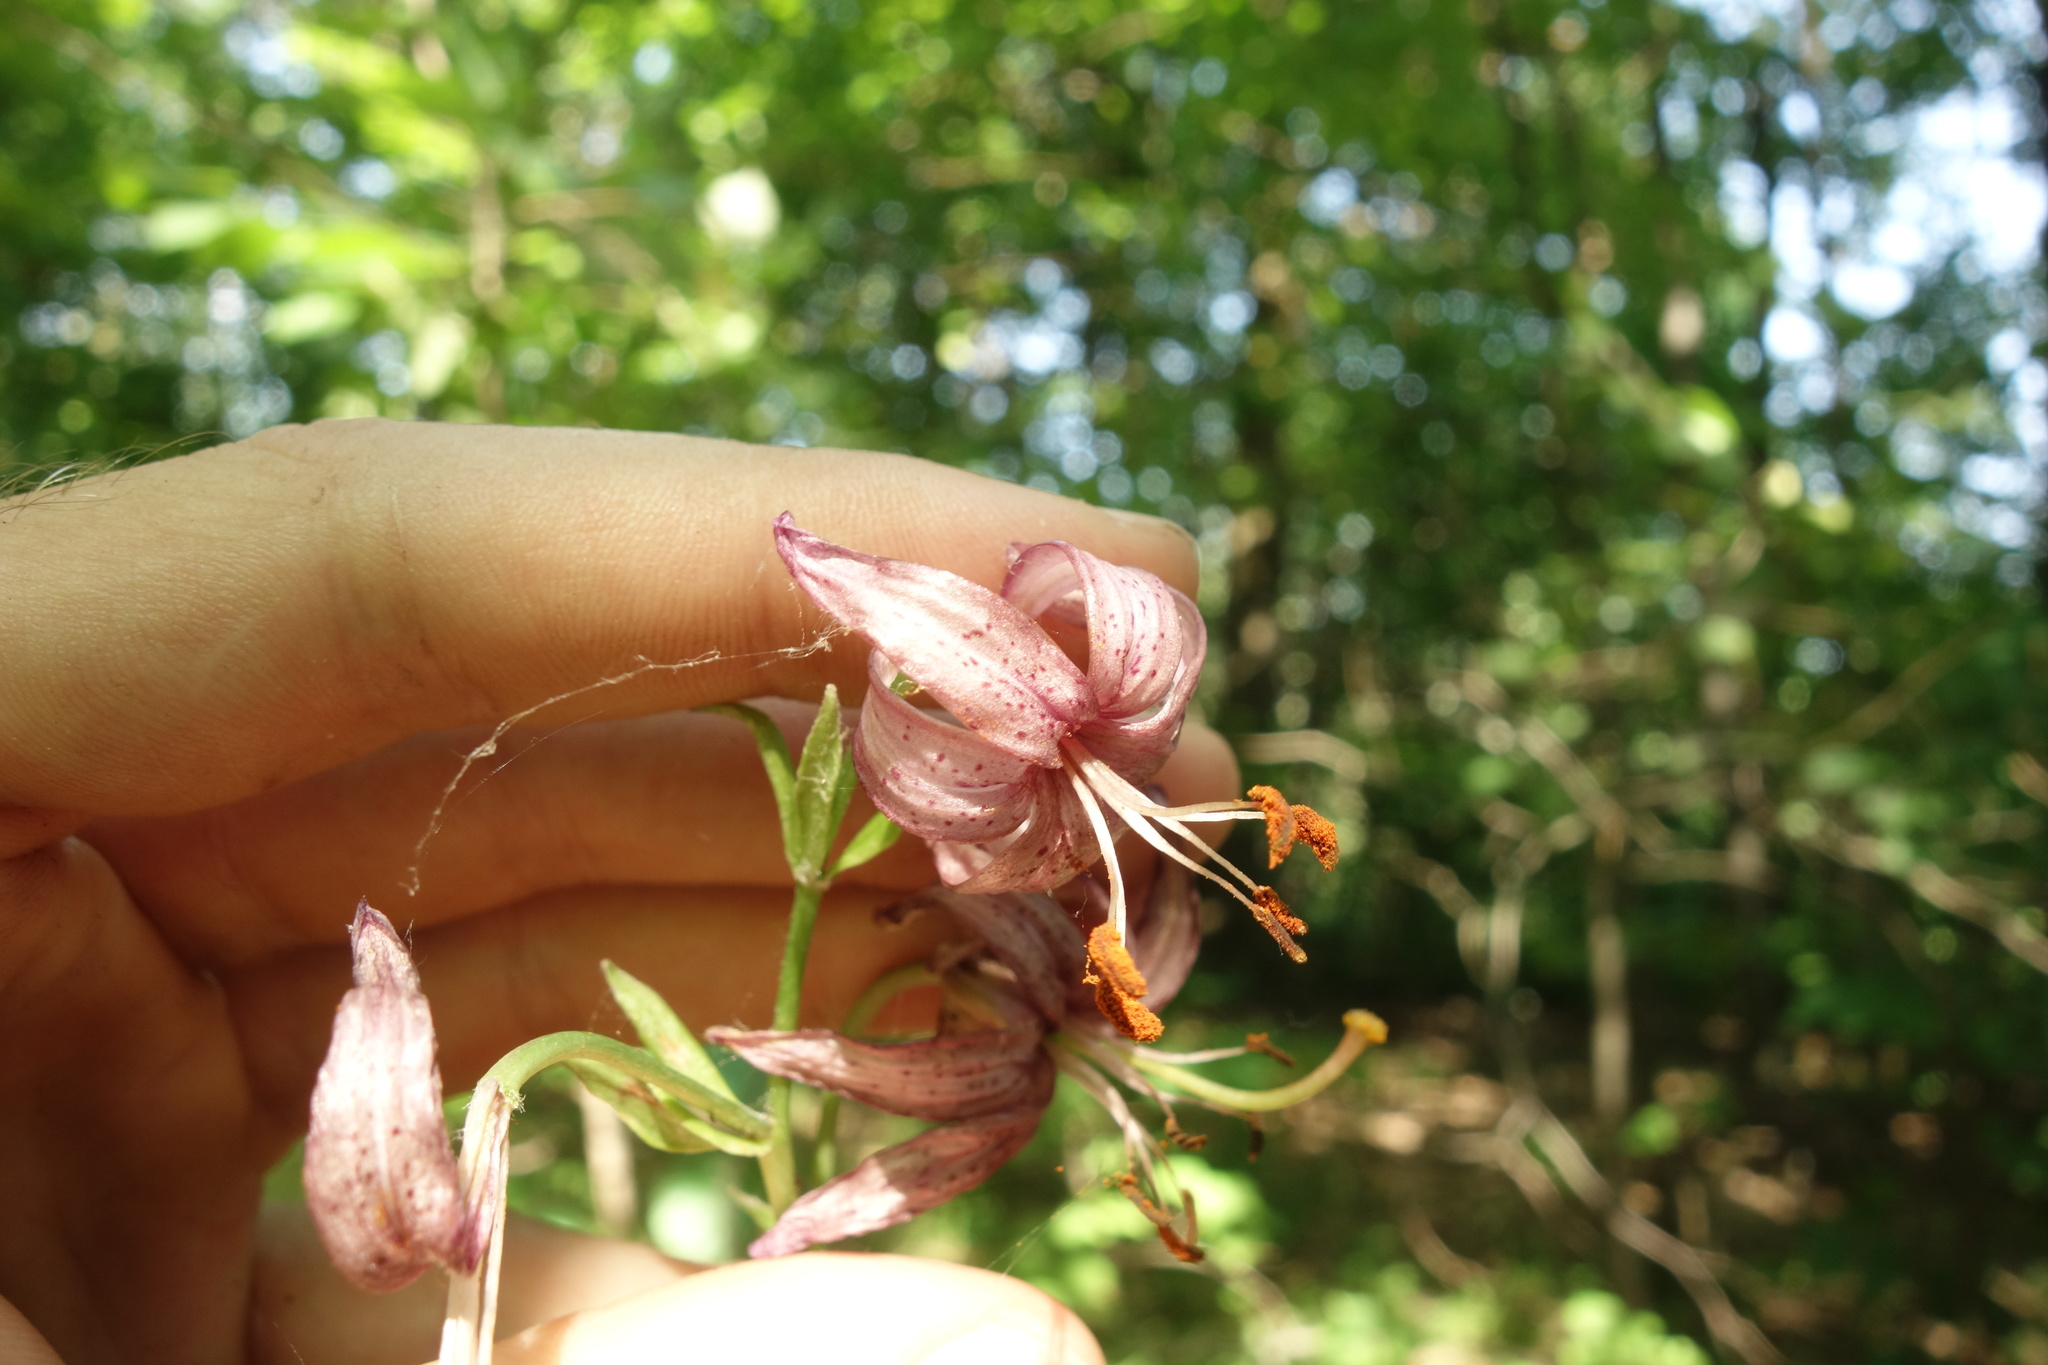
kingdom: Plantae
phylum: Tracheophyta
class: Liliopsida
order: Liliales
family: Liliaceae
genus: Lilium
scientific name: Lilium martagon
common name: Martagon lily
